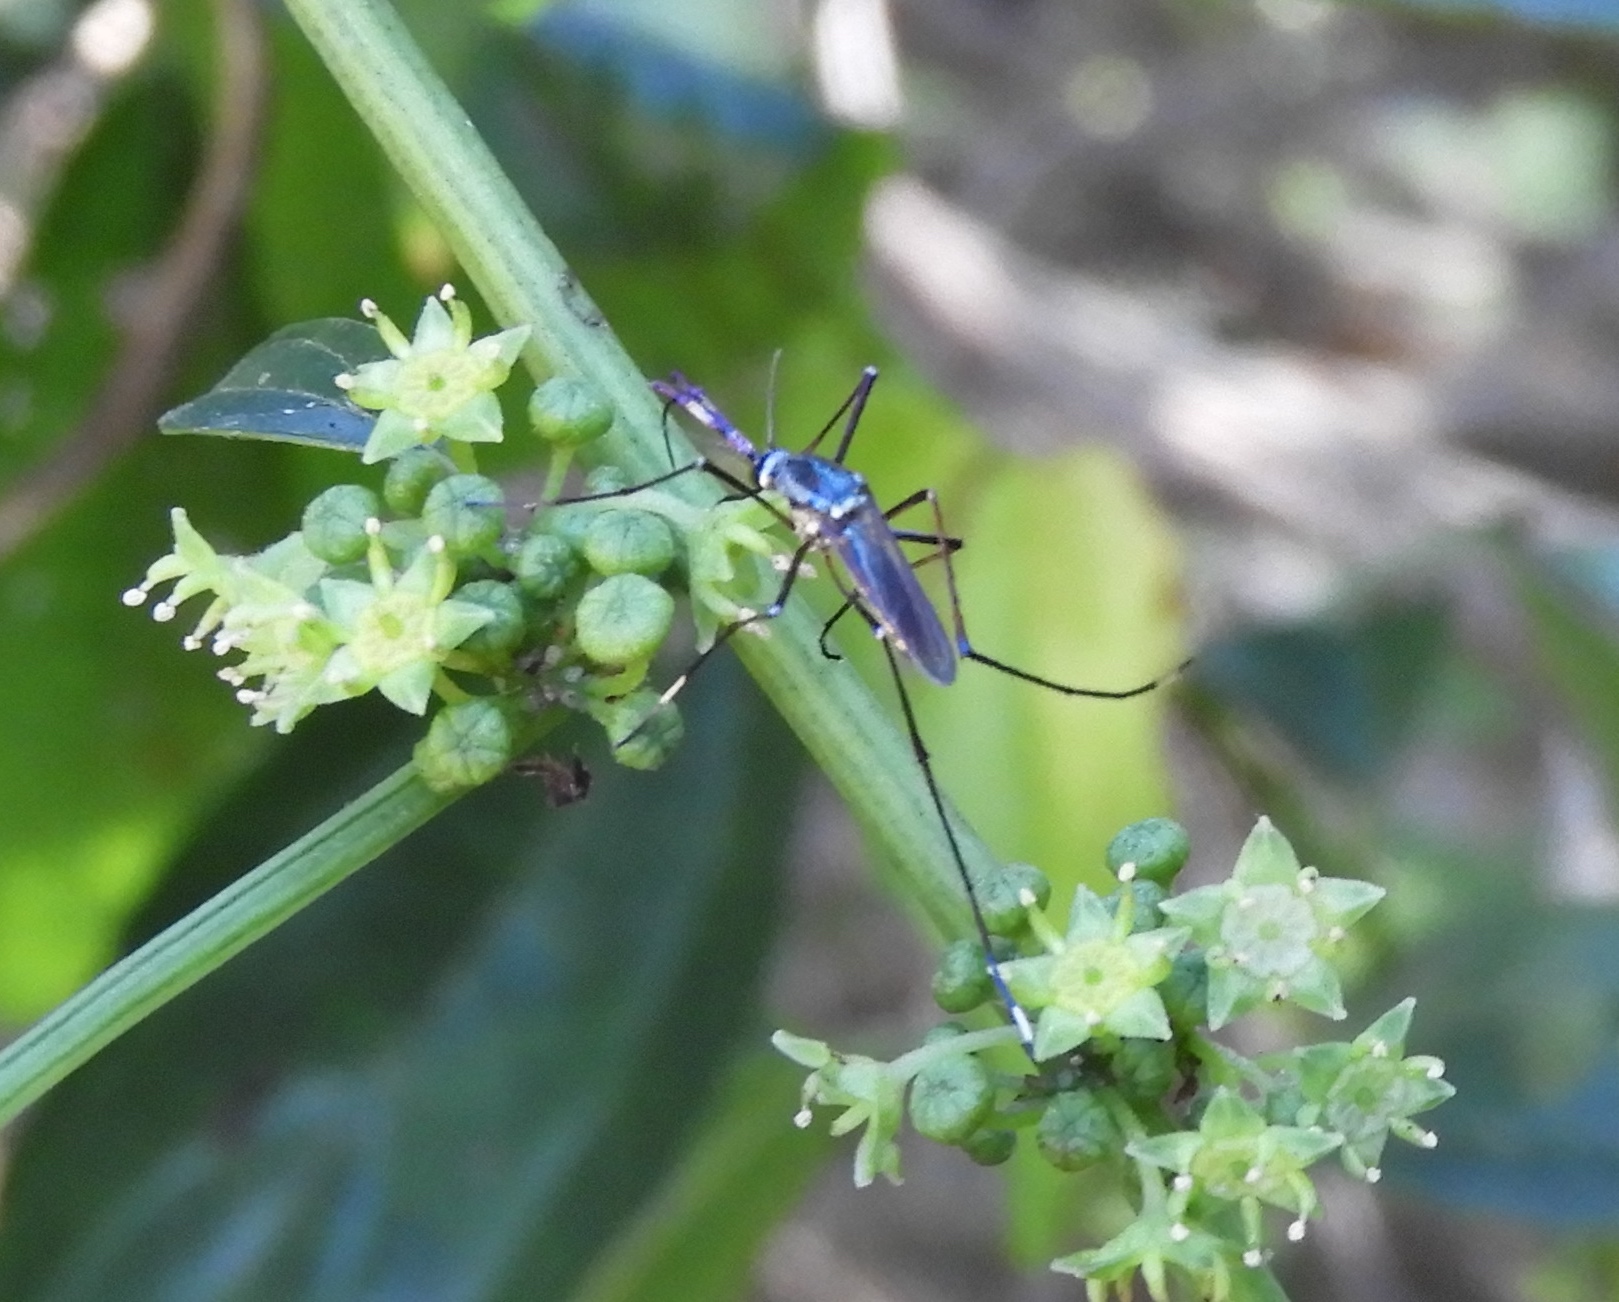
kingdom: Animalia
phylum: Arthropoda
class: Insecta
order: Diptera
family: Culicidae
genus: Toxorhynchites
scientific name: Toxorhynchites rutilus
